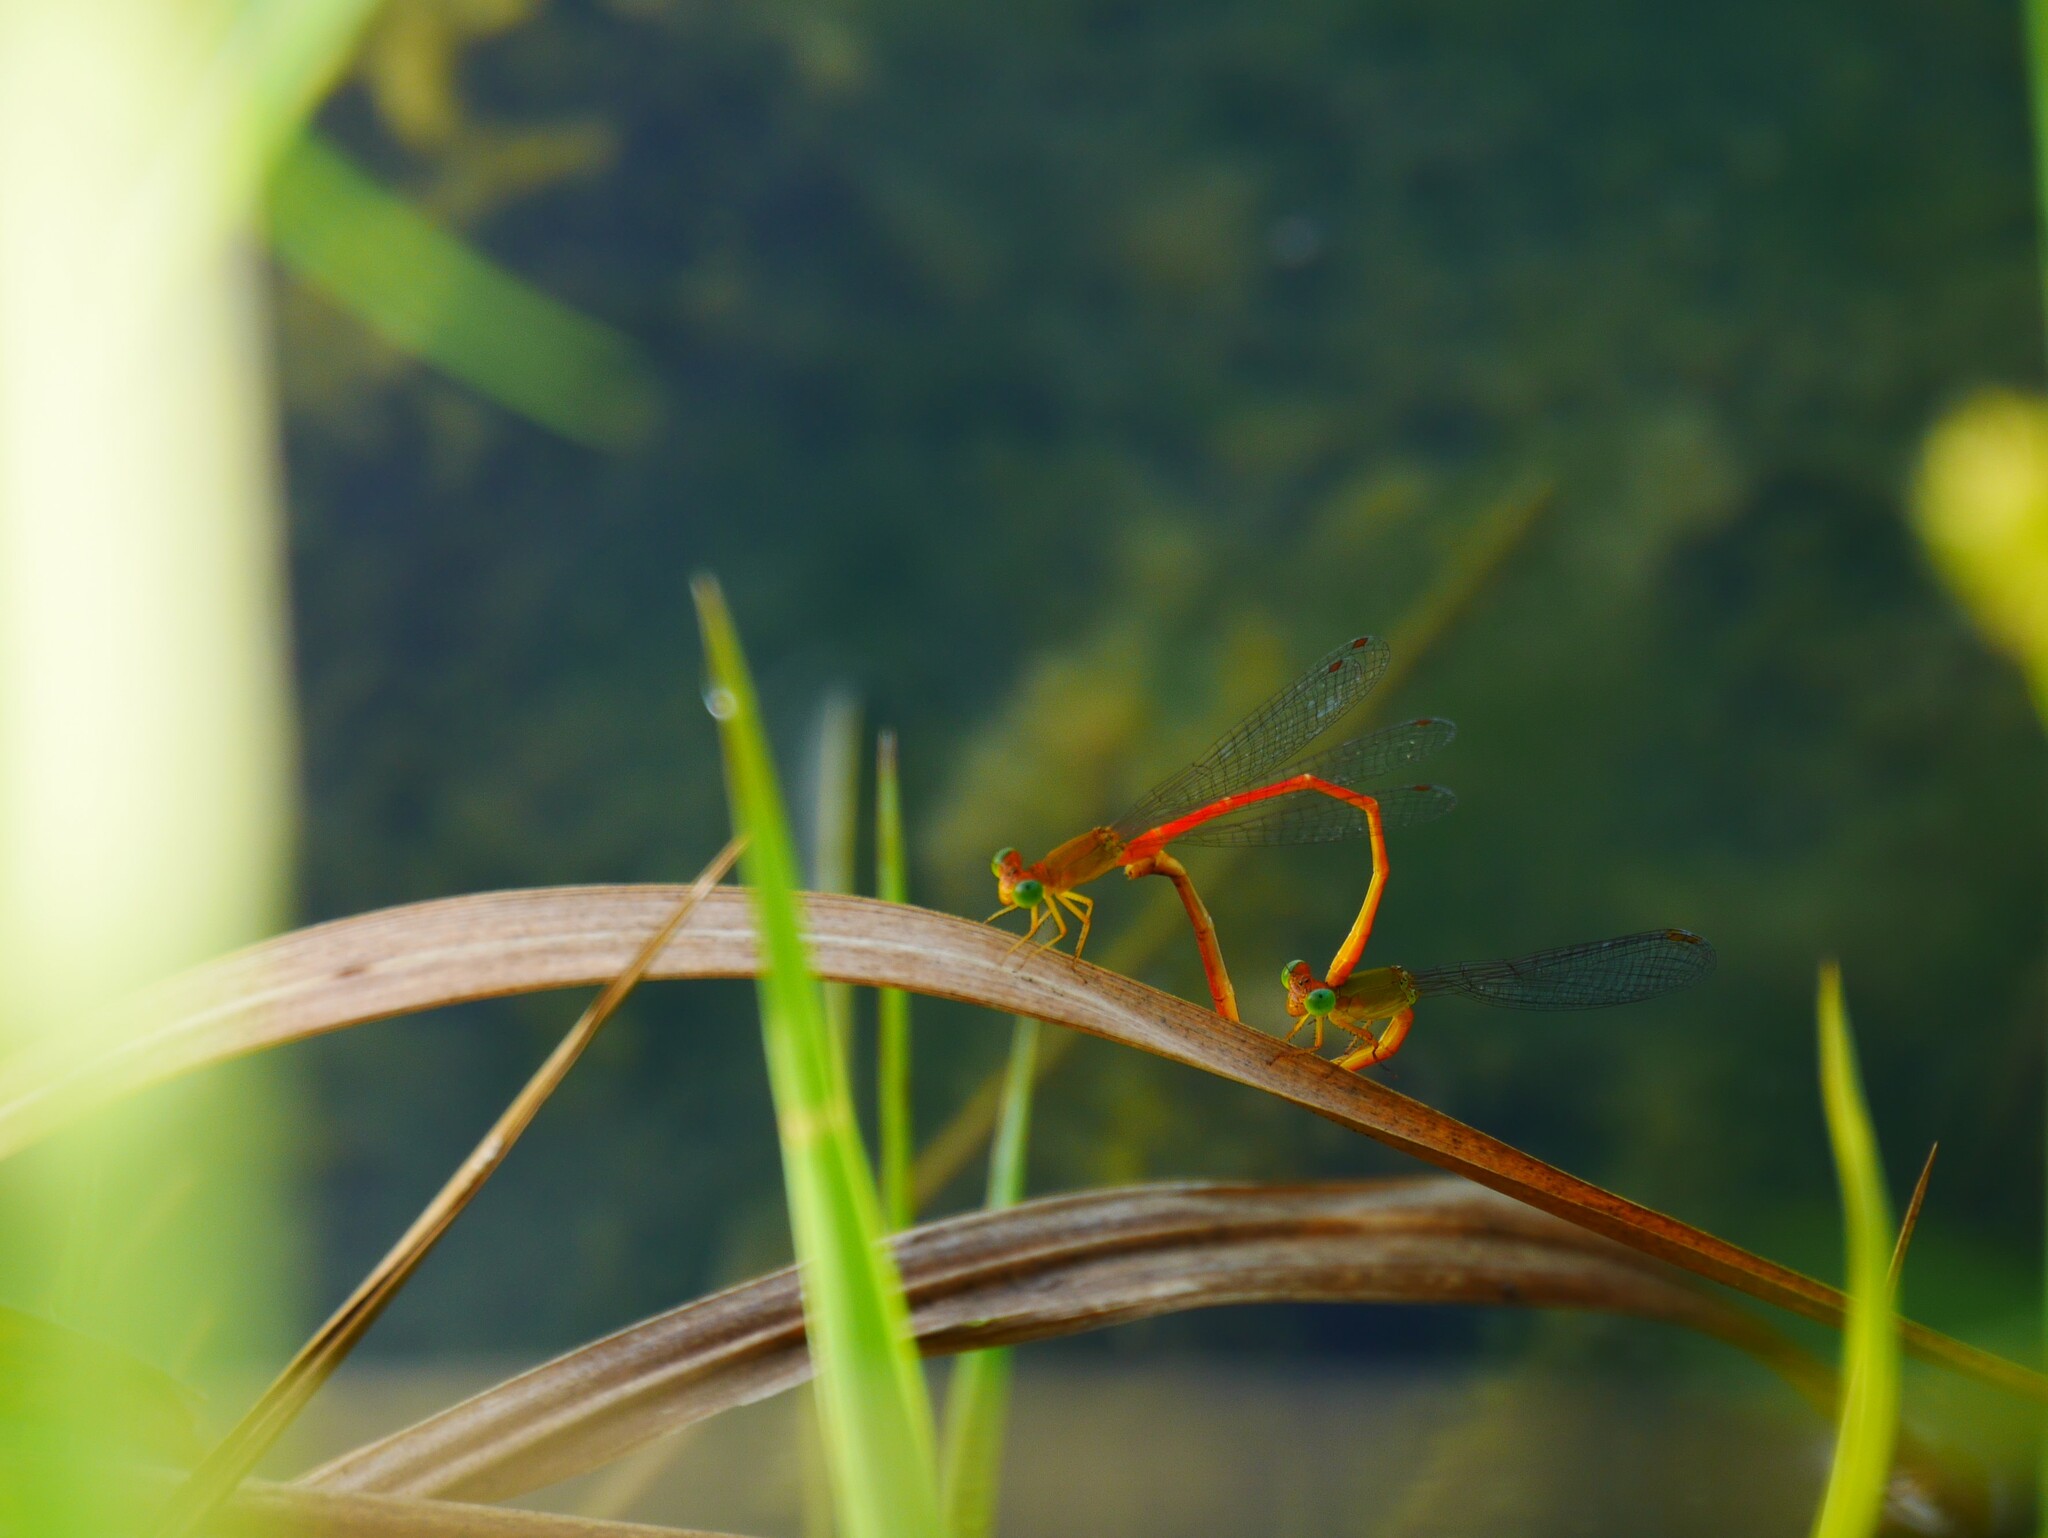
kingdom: Animalia
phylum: Arthropoda
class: Insecta
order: Odonata
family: Coenagrionidae
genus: Ceriagrion
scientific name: Ceriagrion auranticum
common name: Orange-tailed sprite
